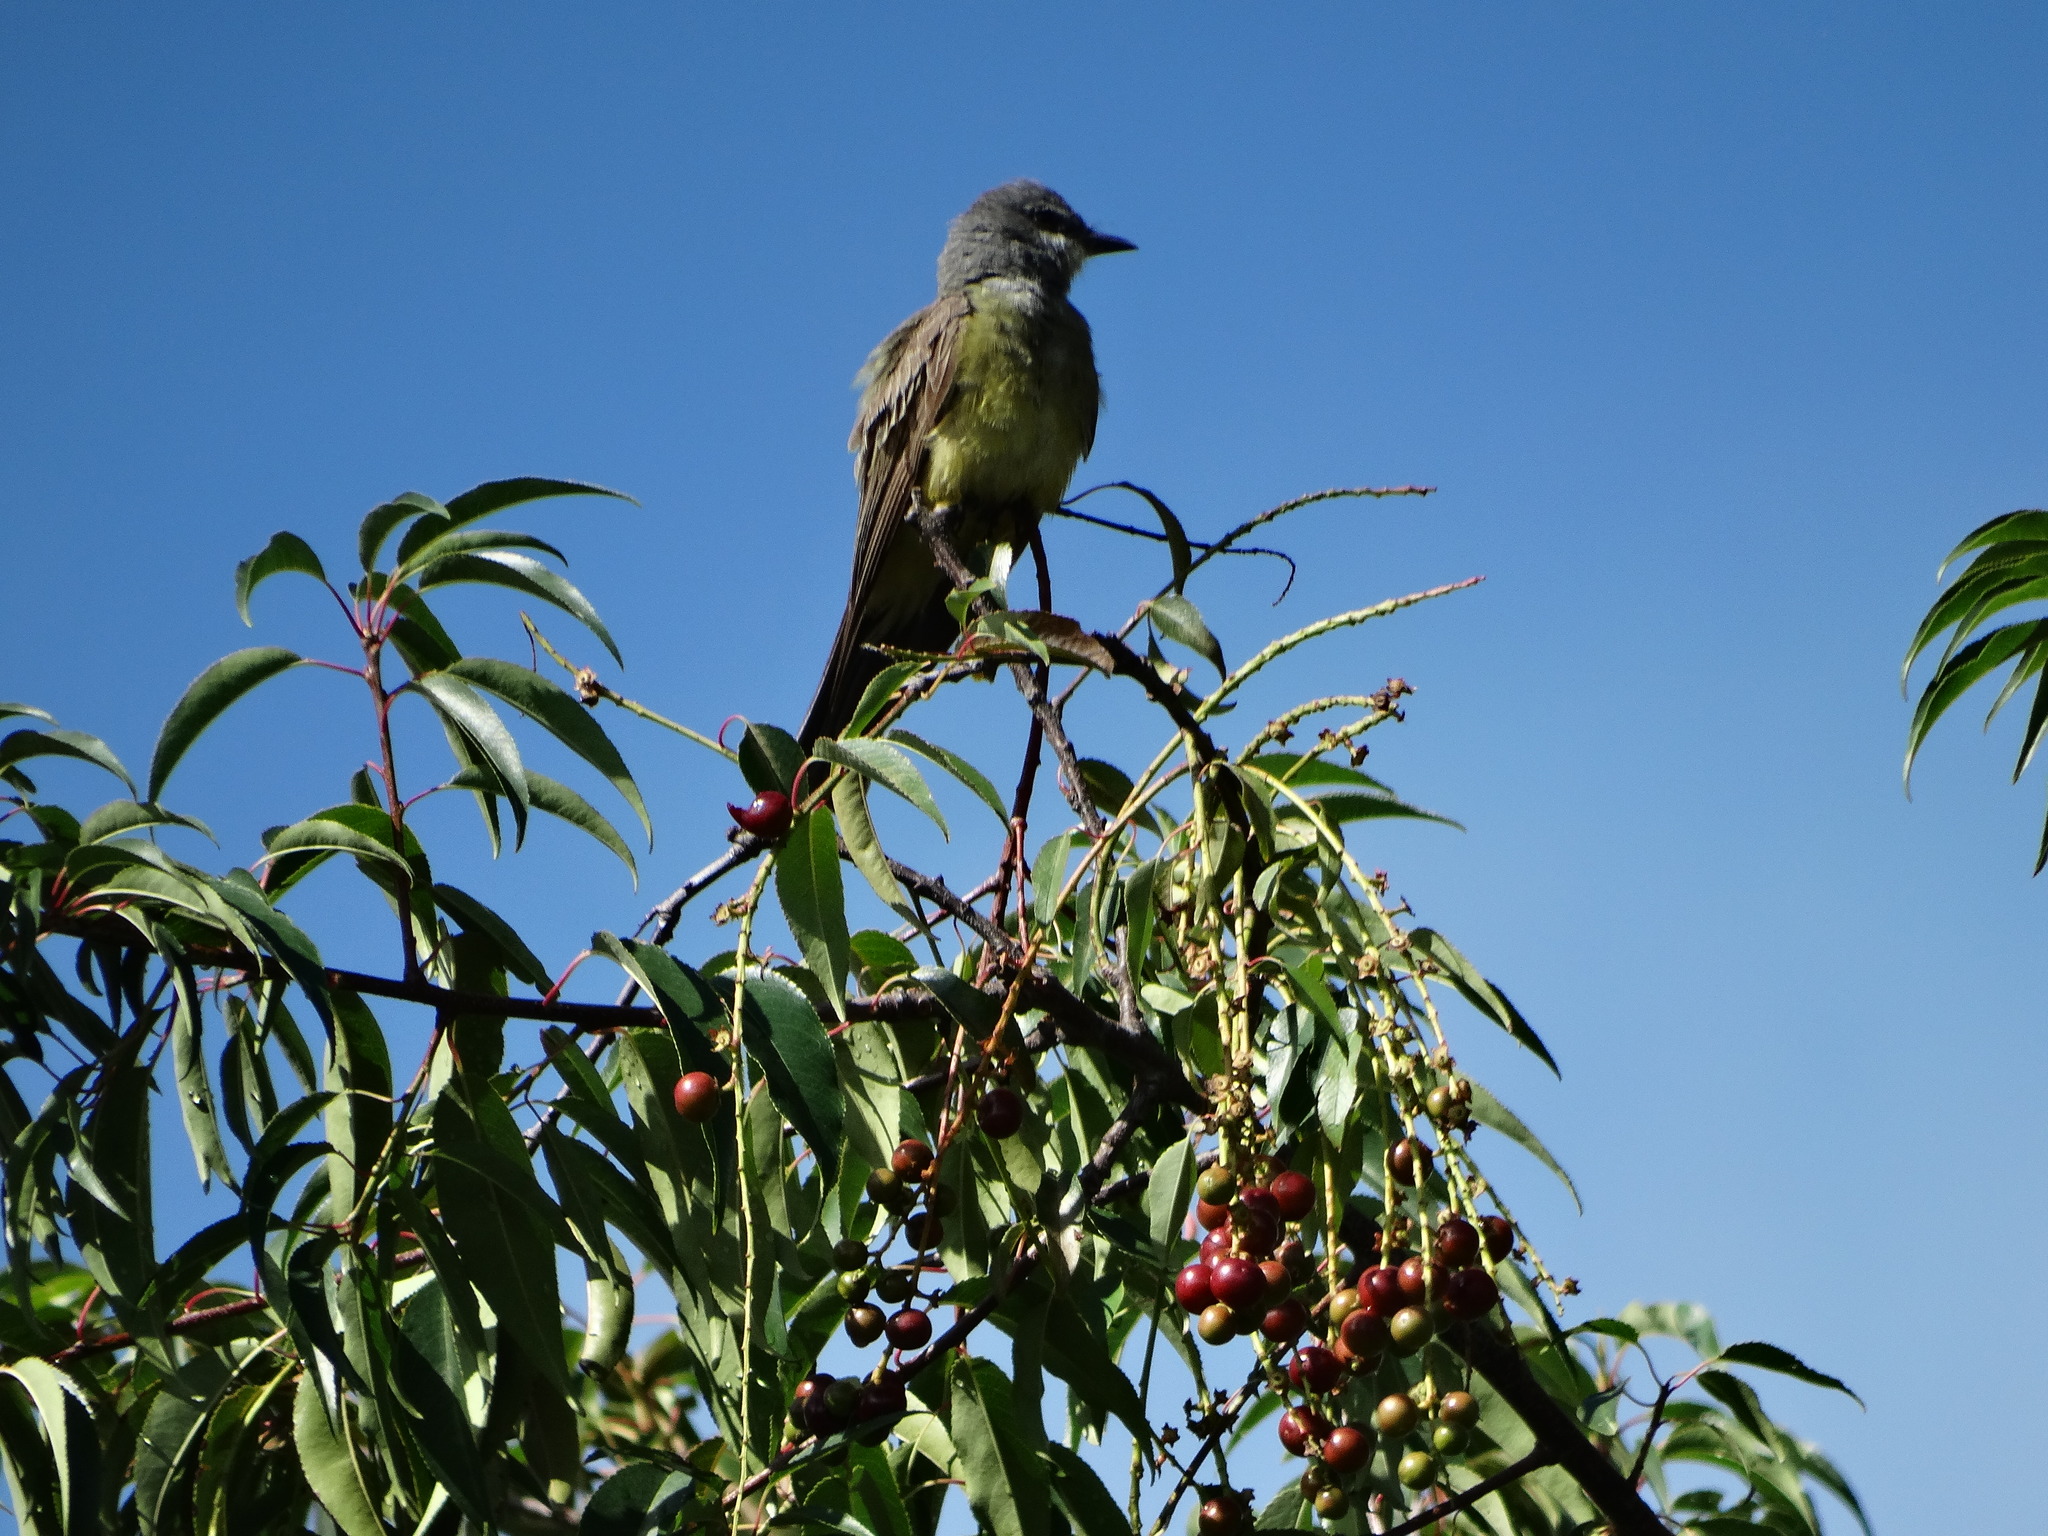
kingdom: Animalia
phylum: Chordata
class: Aves
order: Passeriformes
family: Tyrannidae
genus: Tyrannus
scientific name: Tyrannus vociferans
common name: Cassin's kingbird
